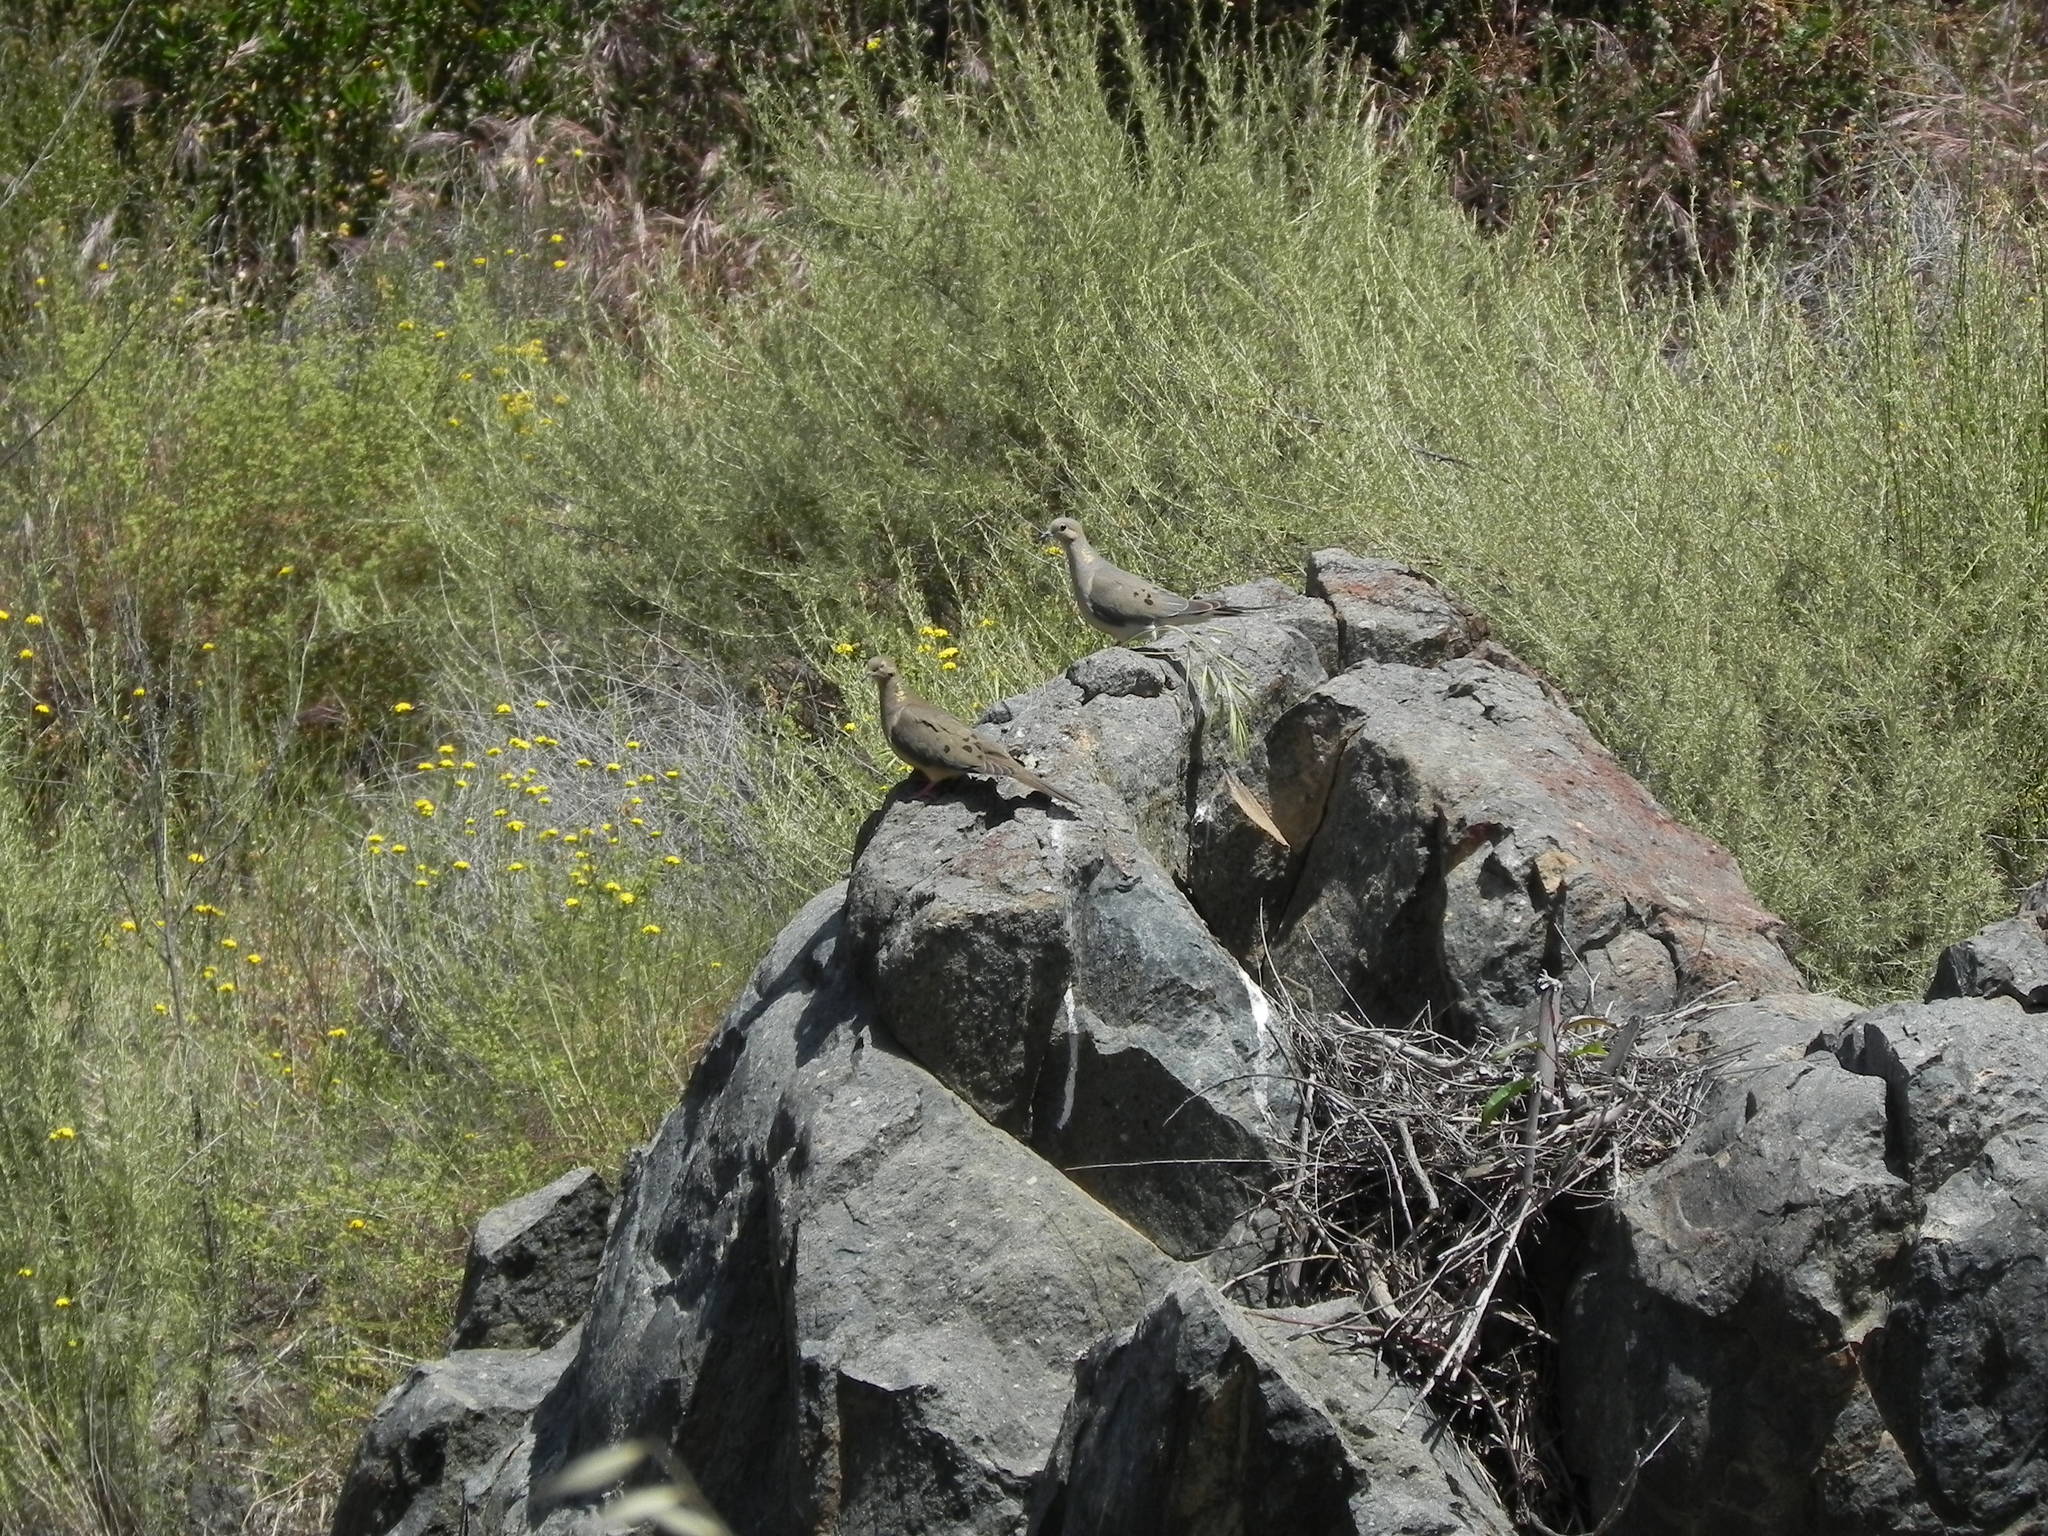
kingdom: Animalia
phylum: Chordata
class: Aves
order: Columbiformes
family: Columbidae
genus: Zenaida
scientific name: Zenaida macroura
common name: Mourning dove
